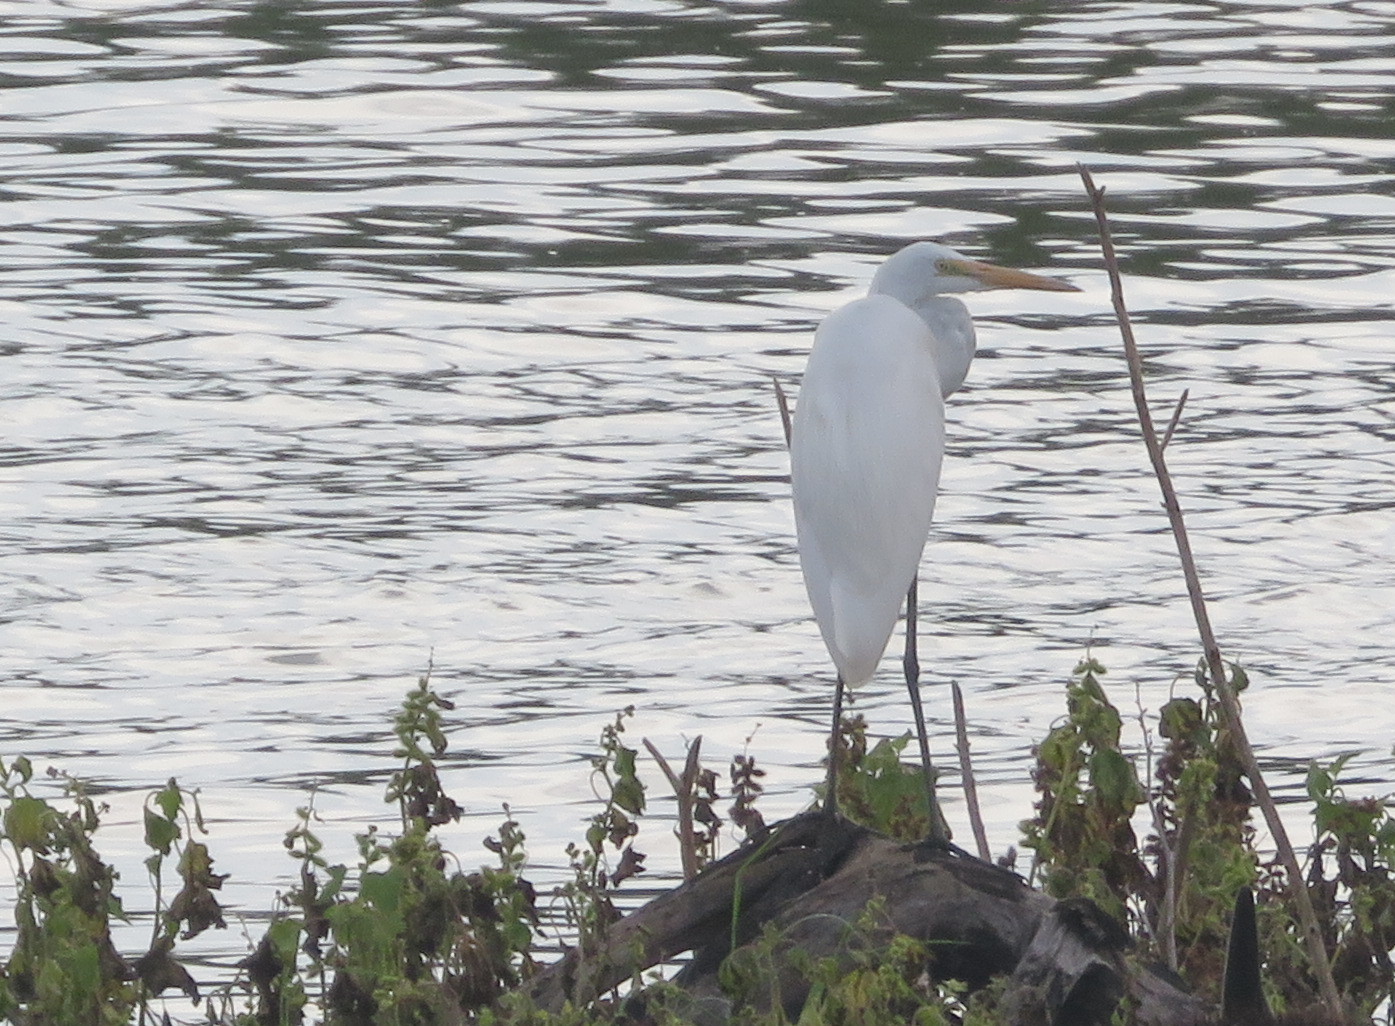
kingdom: Animalia
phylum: Chordata
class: Aves
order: Pelecaniformes
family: Ardeidae
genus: Ardea
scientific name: Ardea alba
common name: Great egret
